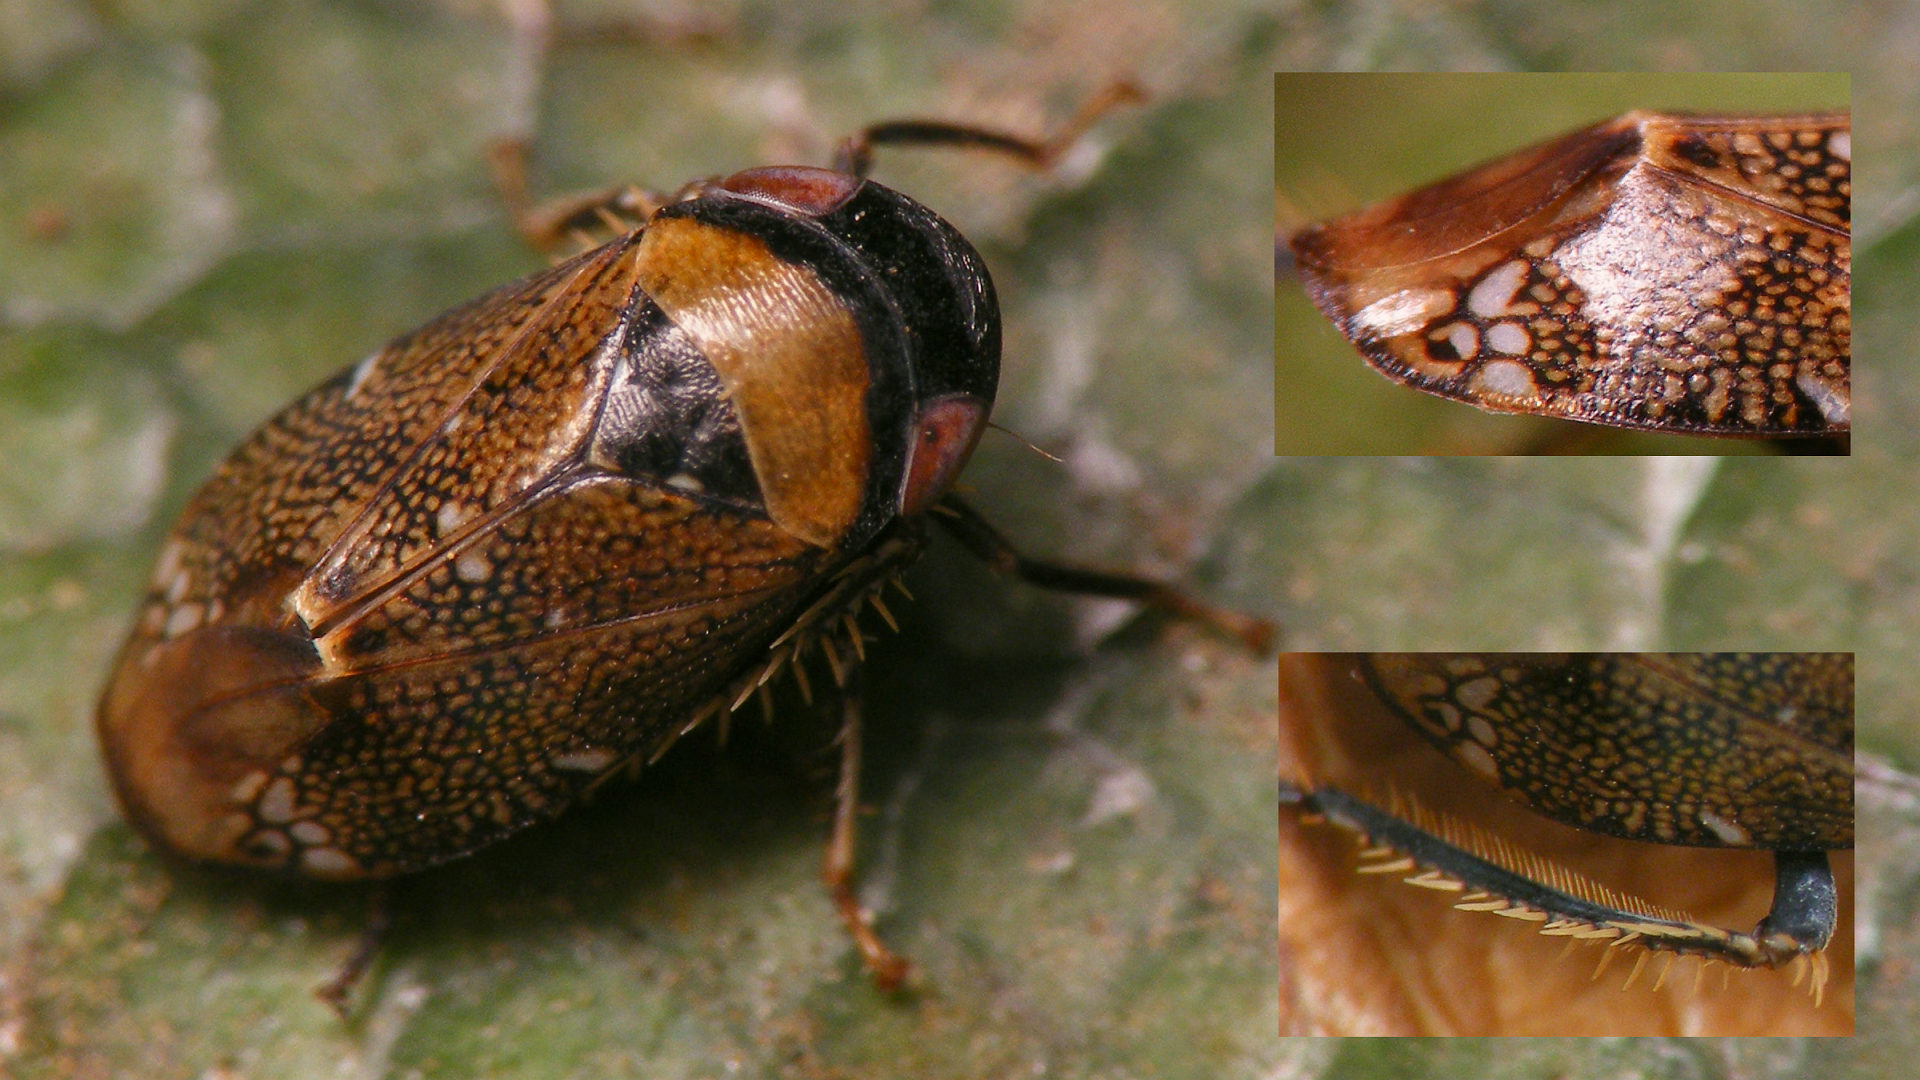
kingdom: Animalia
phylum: Arthropoda
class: Insecta
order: Hemiptera
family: Cicadellidae
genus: Penthimia
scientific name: Penthimia irrorata
